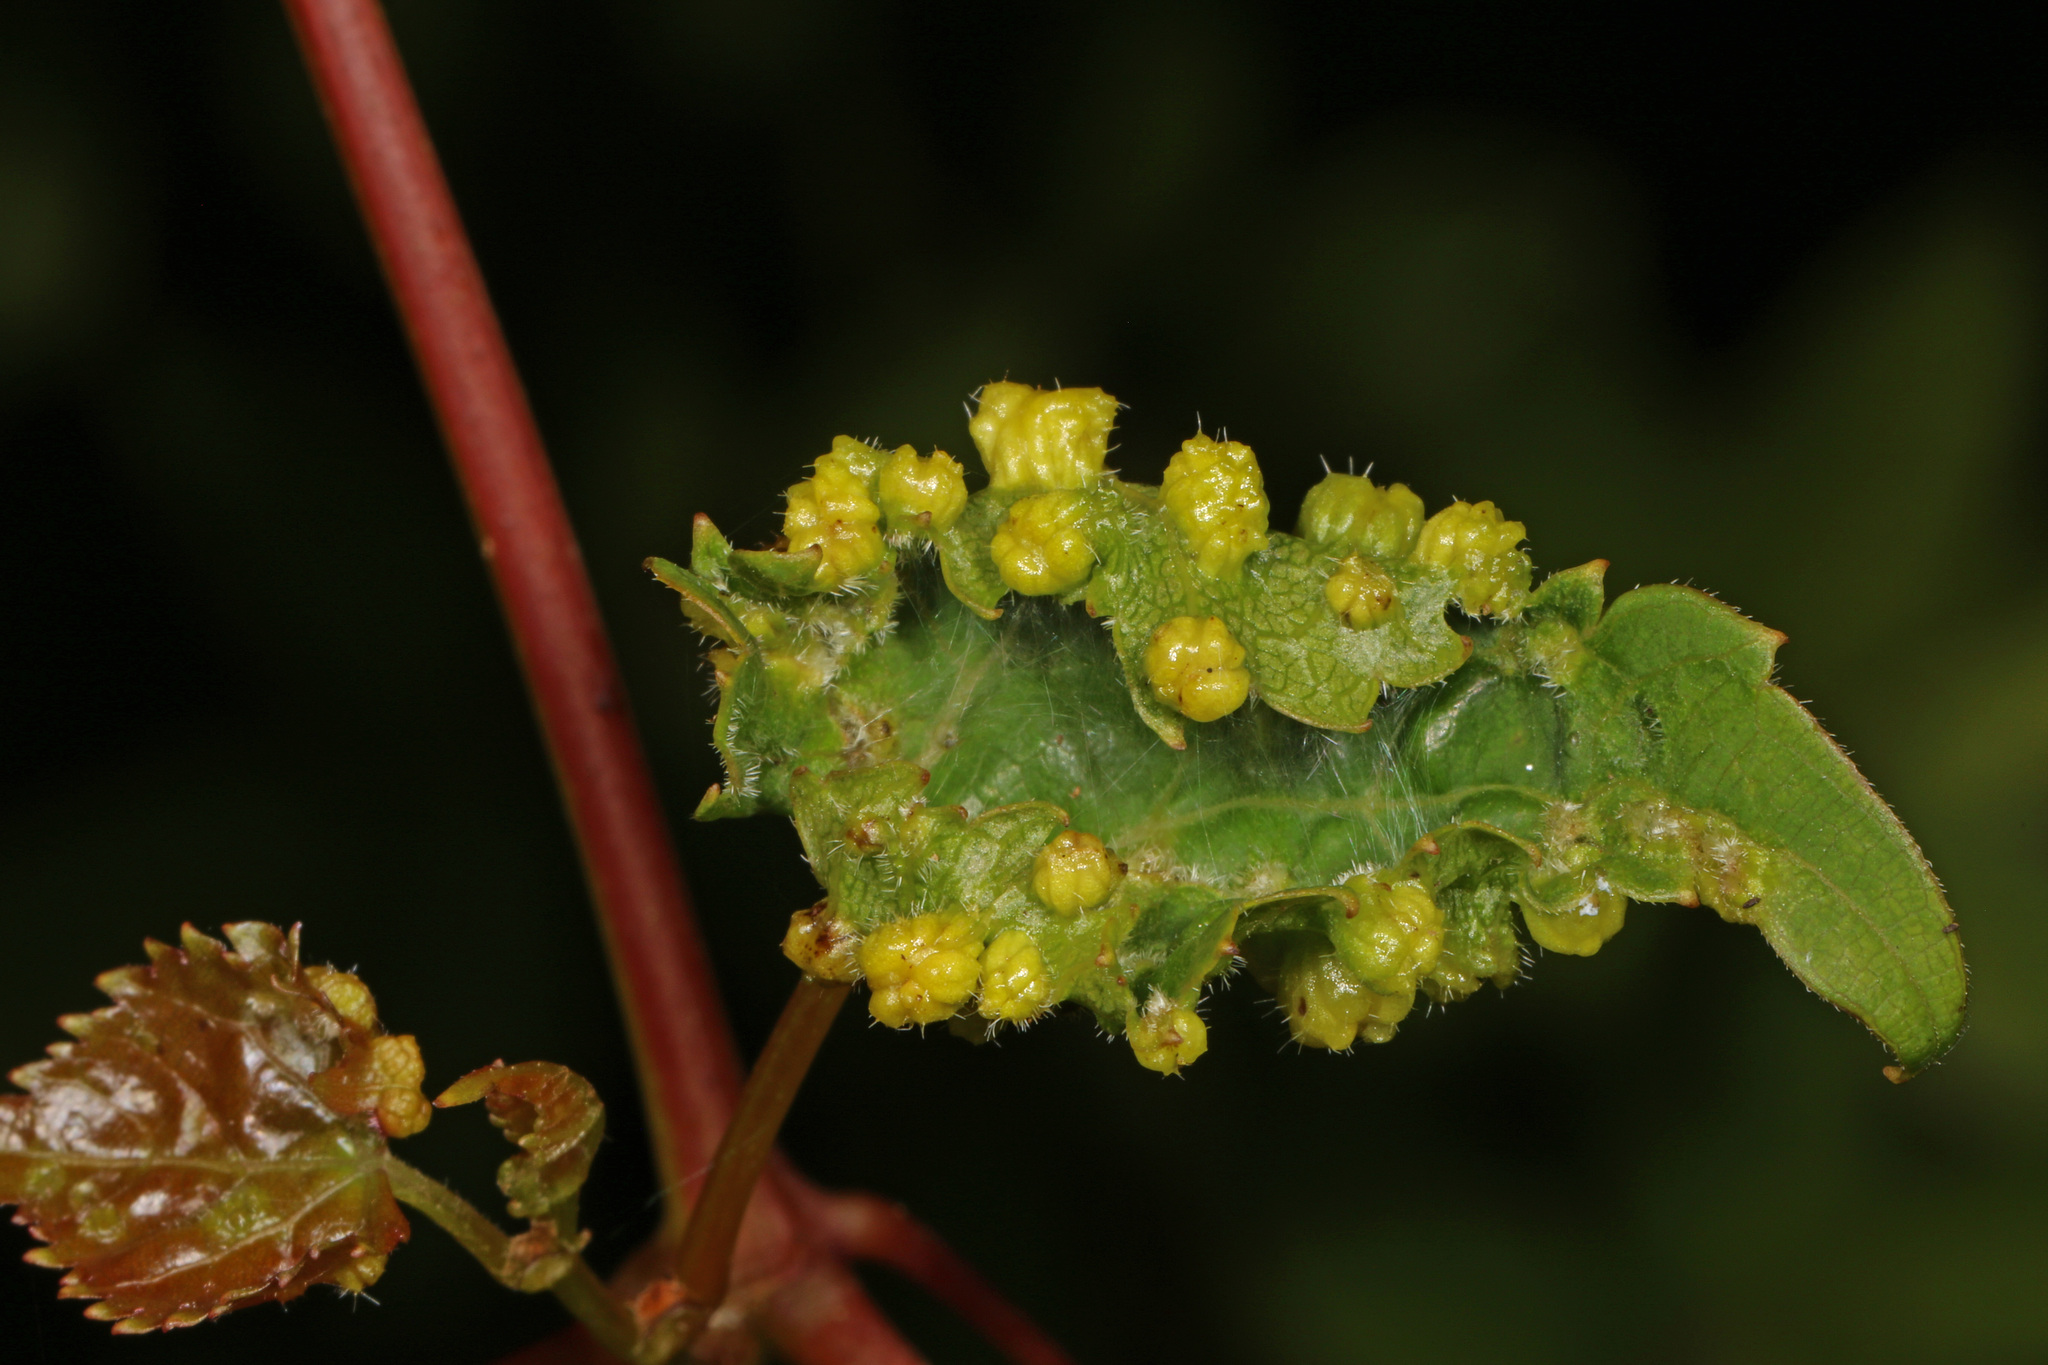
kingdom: Animalia
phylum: Arthropoda
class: Insecta
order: Hemiptera
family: Phylloxeridae
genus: Daktulosphaira
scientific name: Daktulosphaira vitifoliae
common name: Grape phylloxera
